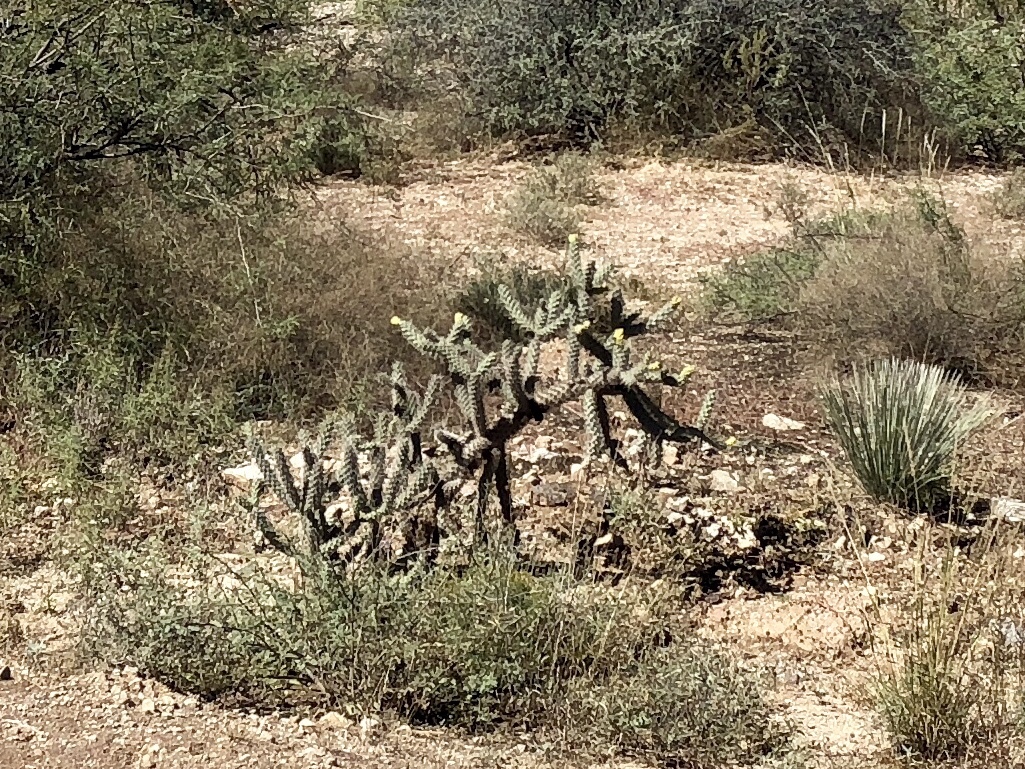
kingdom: Plantae
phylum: Tracheophyta
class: Magnoliopsida
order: Caryophyllales
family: Cactaceae
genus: Cylindropuntia
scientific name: Cylindropuntia imbricata
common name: Candelabrum cactus
